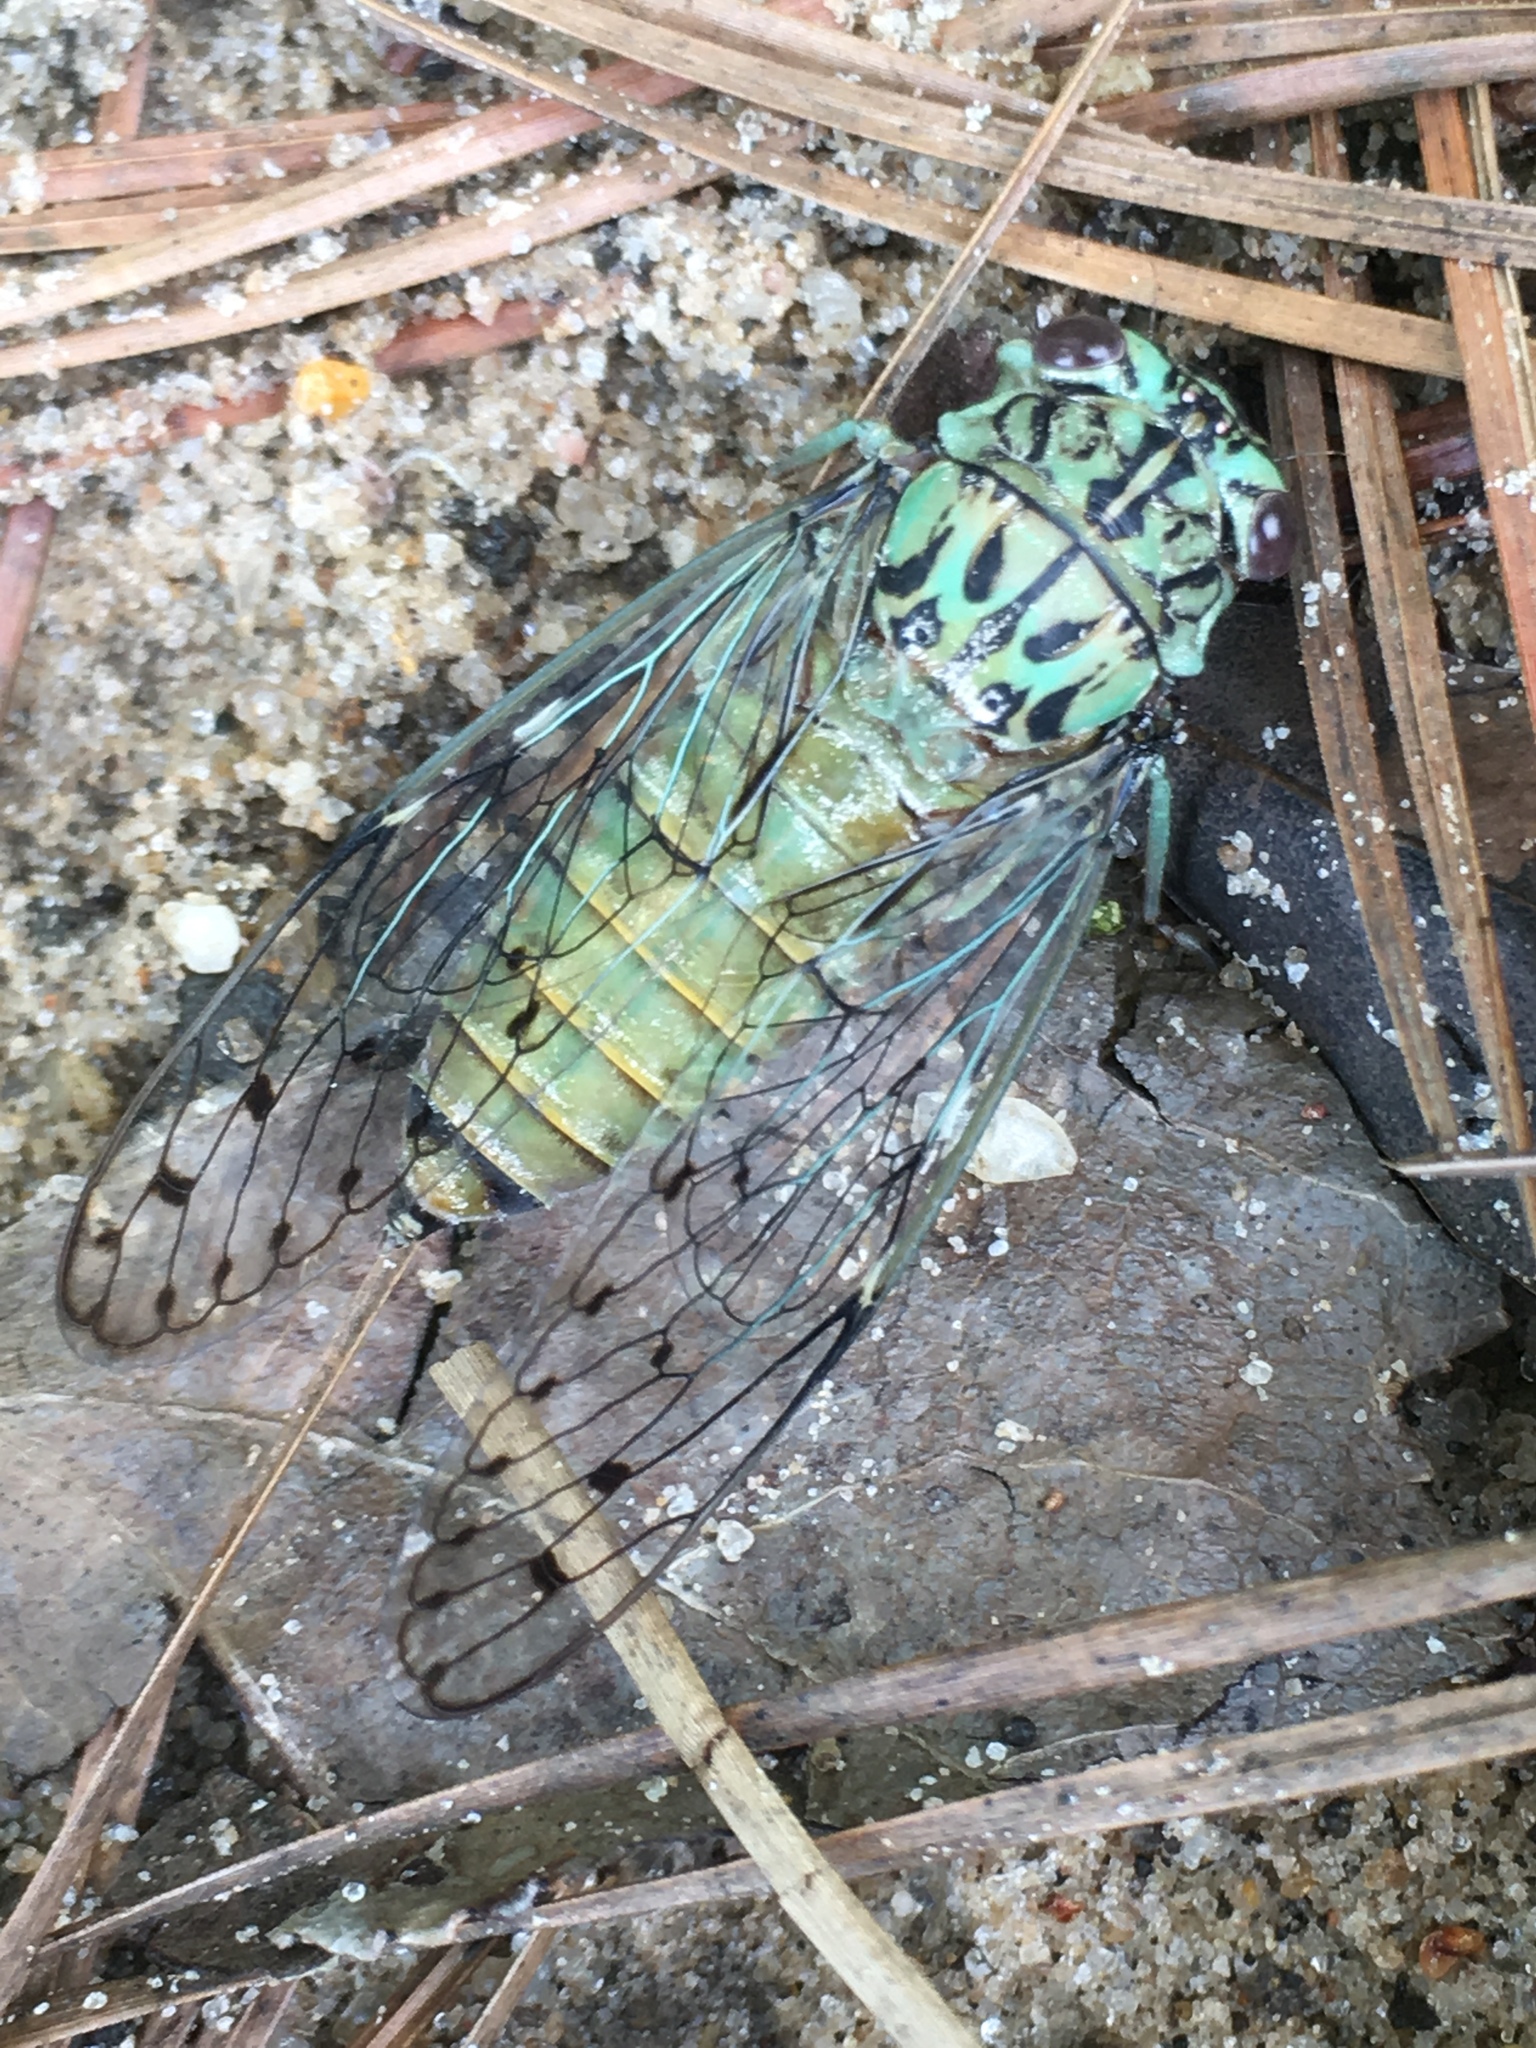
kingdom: Animalia
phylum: Arthropoda
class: Insecta
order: Hemiptera
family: Cicadidae
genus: Neocicada
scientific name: Neocicada hieroglyphica
